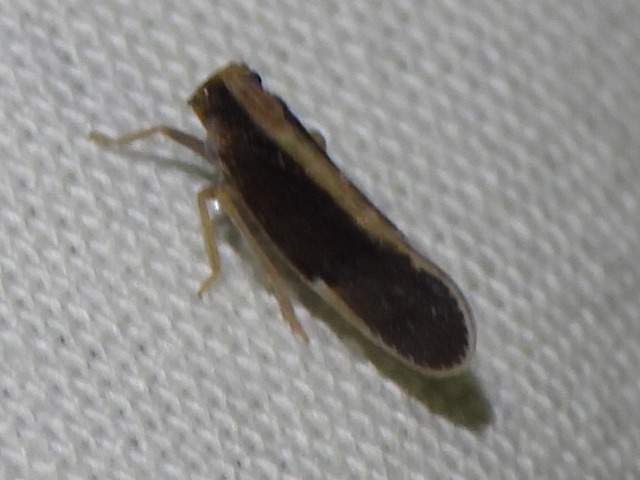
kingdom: Animalia
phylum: Arthropoda
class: Insecta
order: Hemiptera
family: Cixiidae
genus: Pintalia
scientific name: Pintalia delicata
